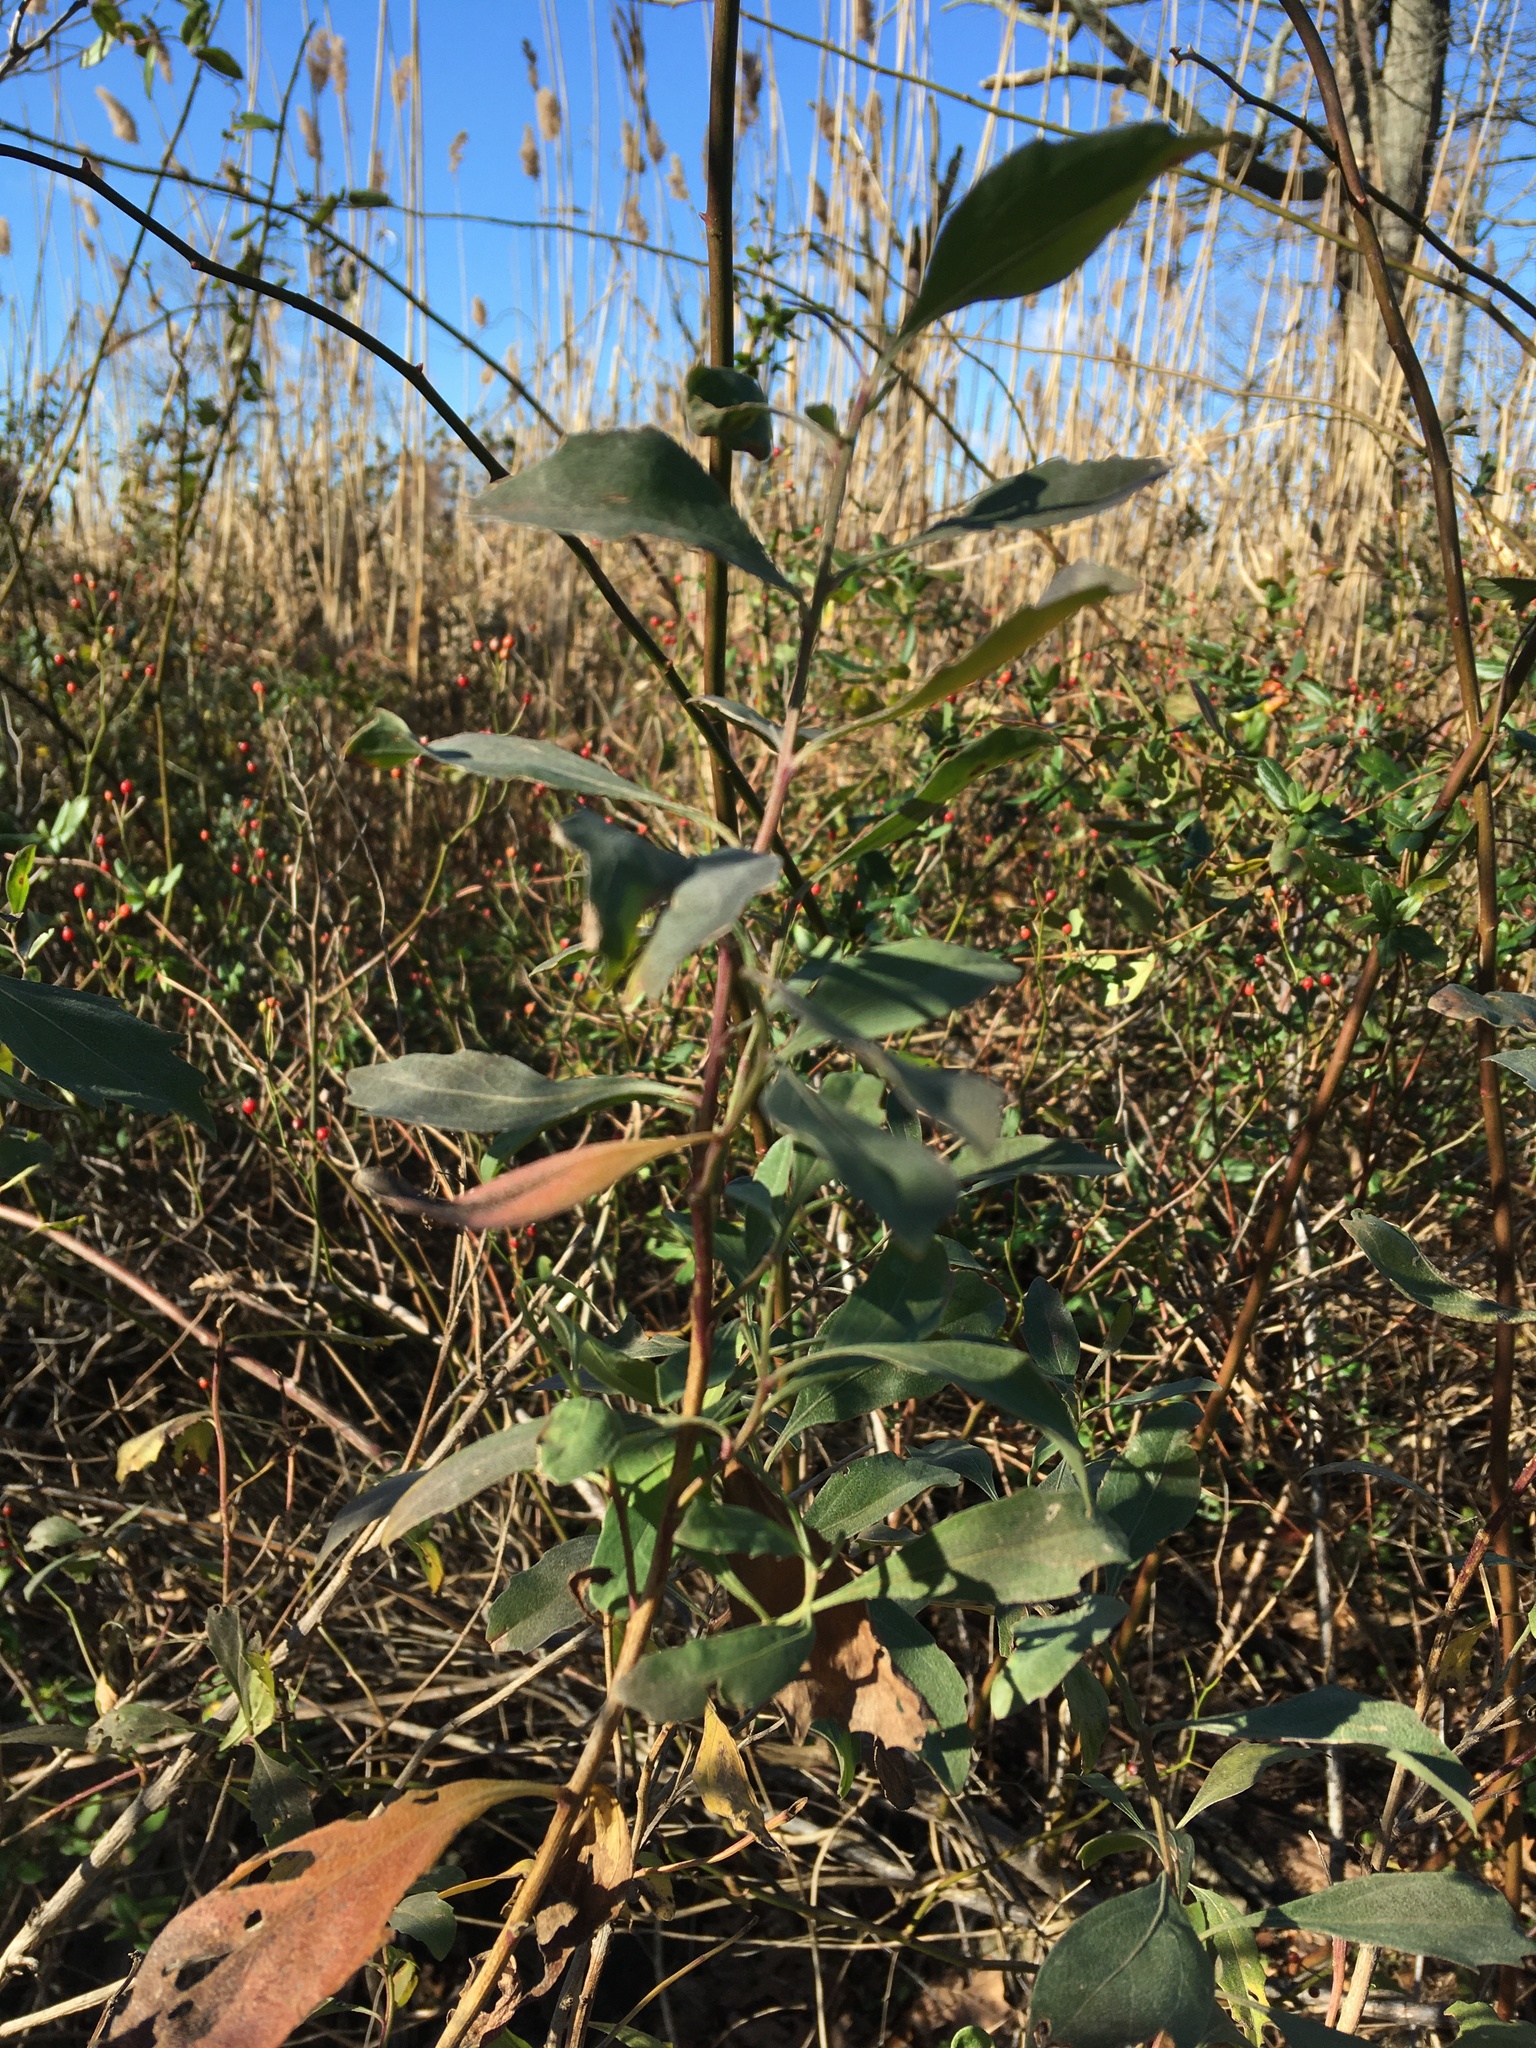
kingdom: Plantae
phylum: Tracheophyta
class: Magnoliopsida
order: Asterales
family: Asteraceae
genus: Baccharis
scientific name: Baccharis halimifolia
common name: Eastern baccharis
